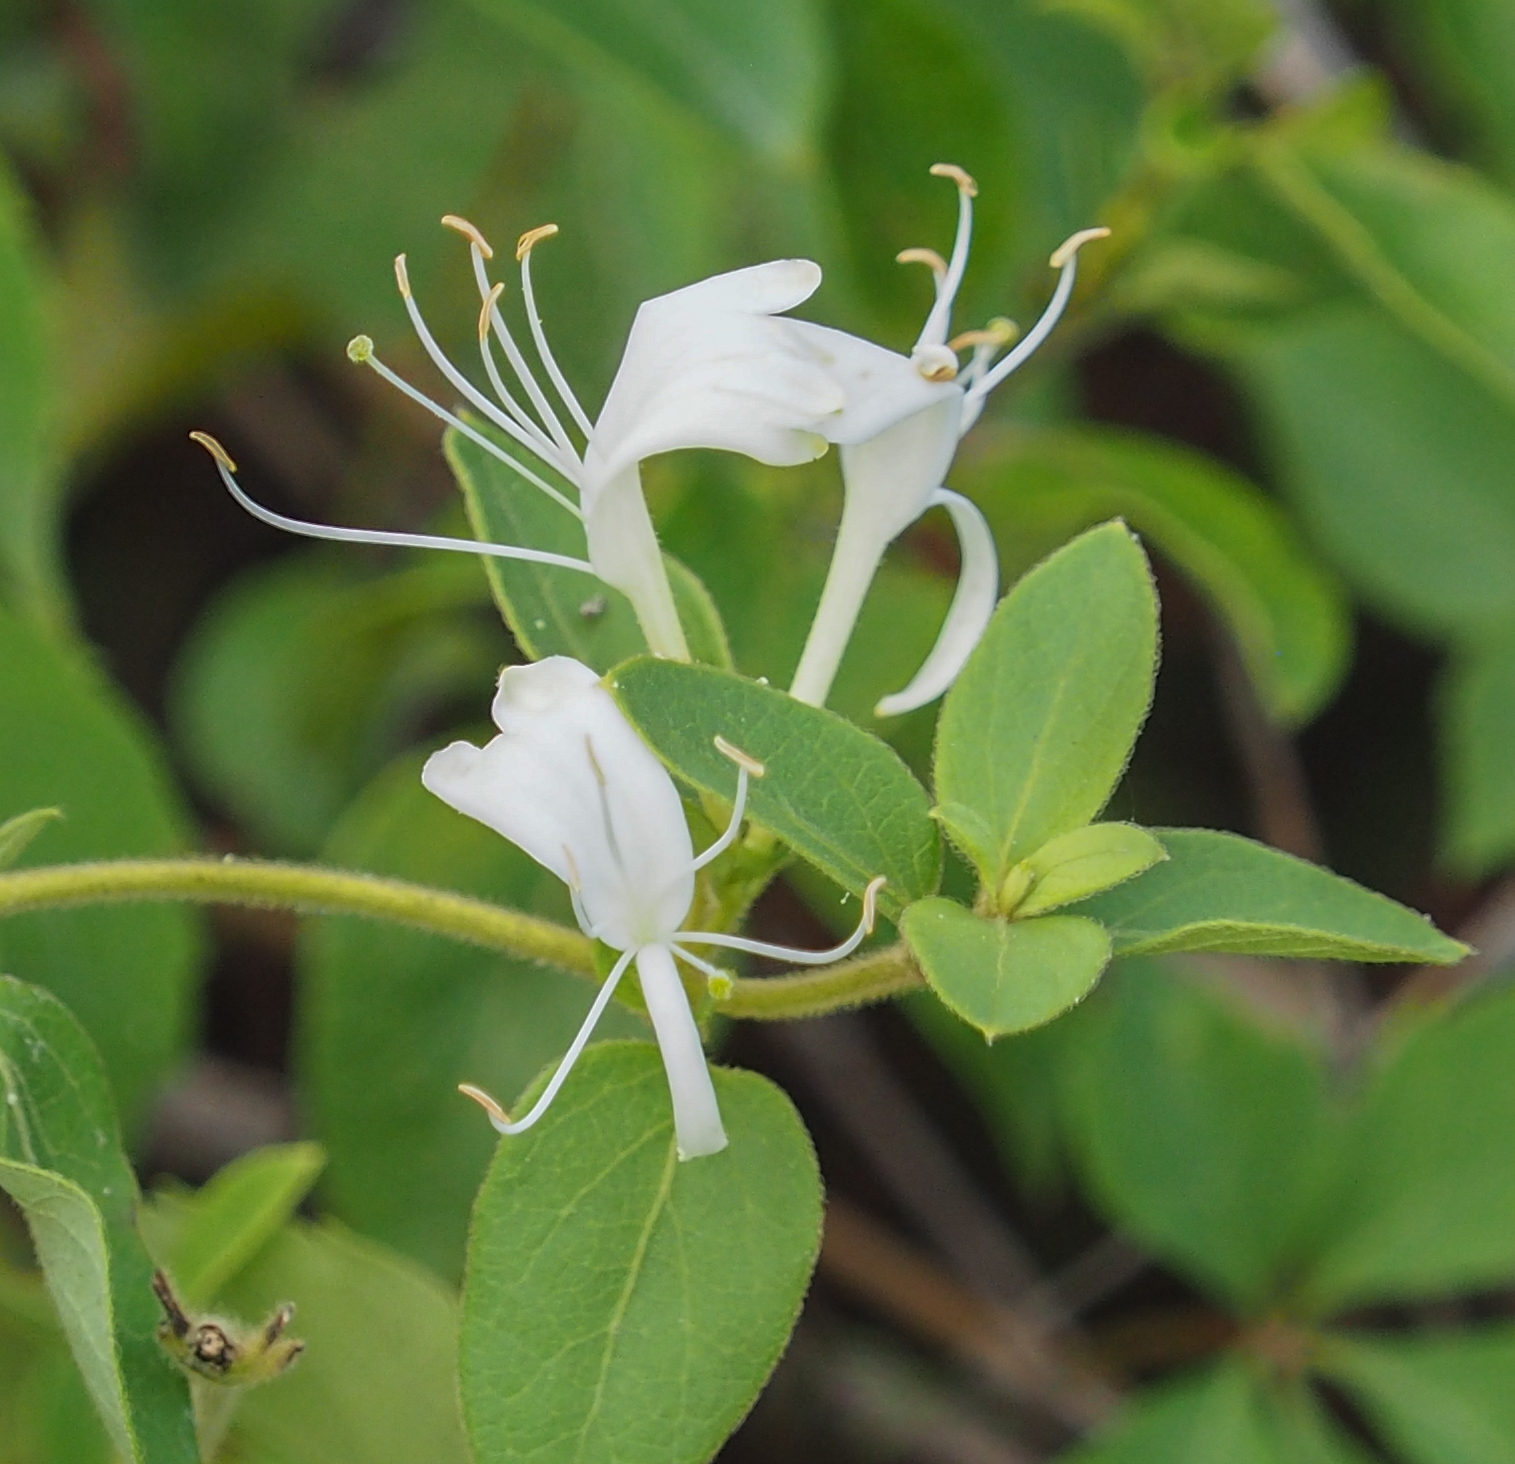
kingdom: Plantae
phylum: Tracheophyta
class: Magnoliopsida
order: Dipsacales
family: Caprifoliaceae
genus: Lonicera
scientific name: Lonicera japonica
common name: Japanese honeysuckle
